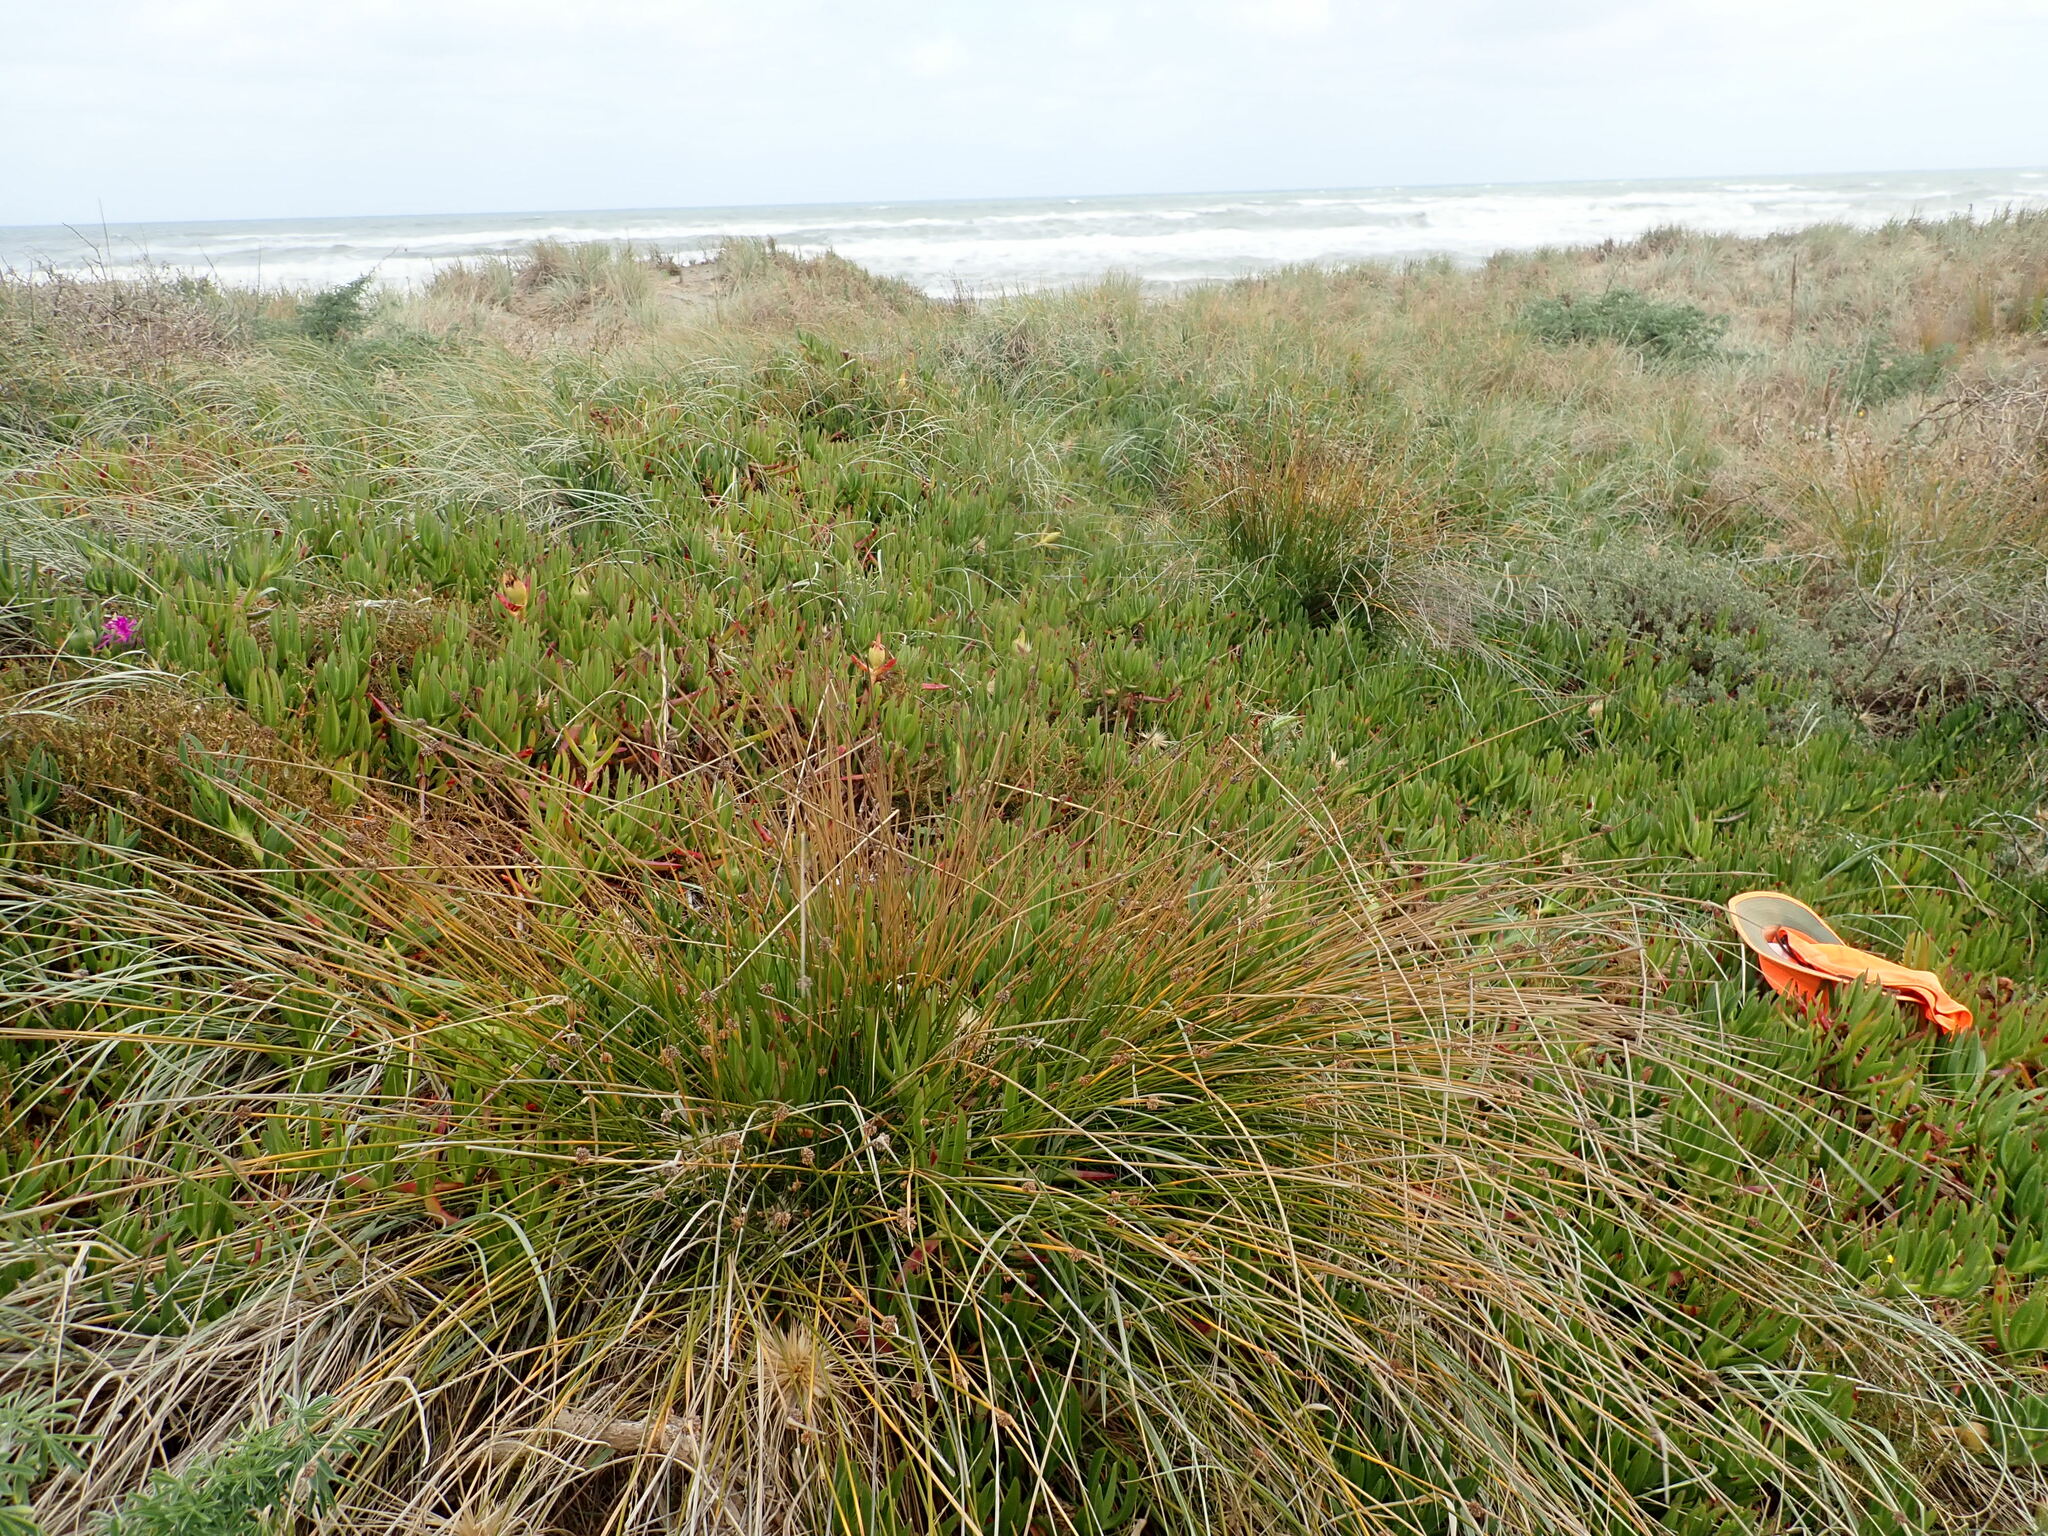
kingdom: Plantae
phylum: Tracheophyta
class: Magnoliopsida
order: Caryophyllales
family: Aizoaceae
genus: Carpobrotus
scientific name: Carpobrotus chilensis
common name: Sea fig
